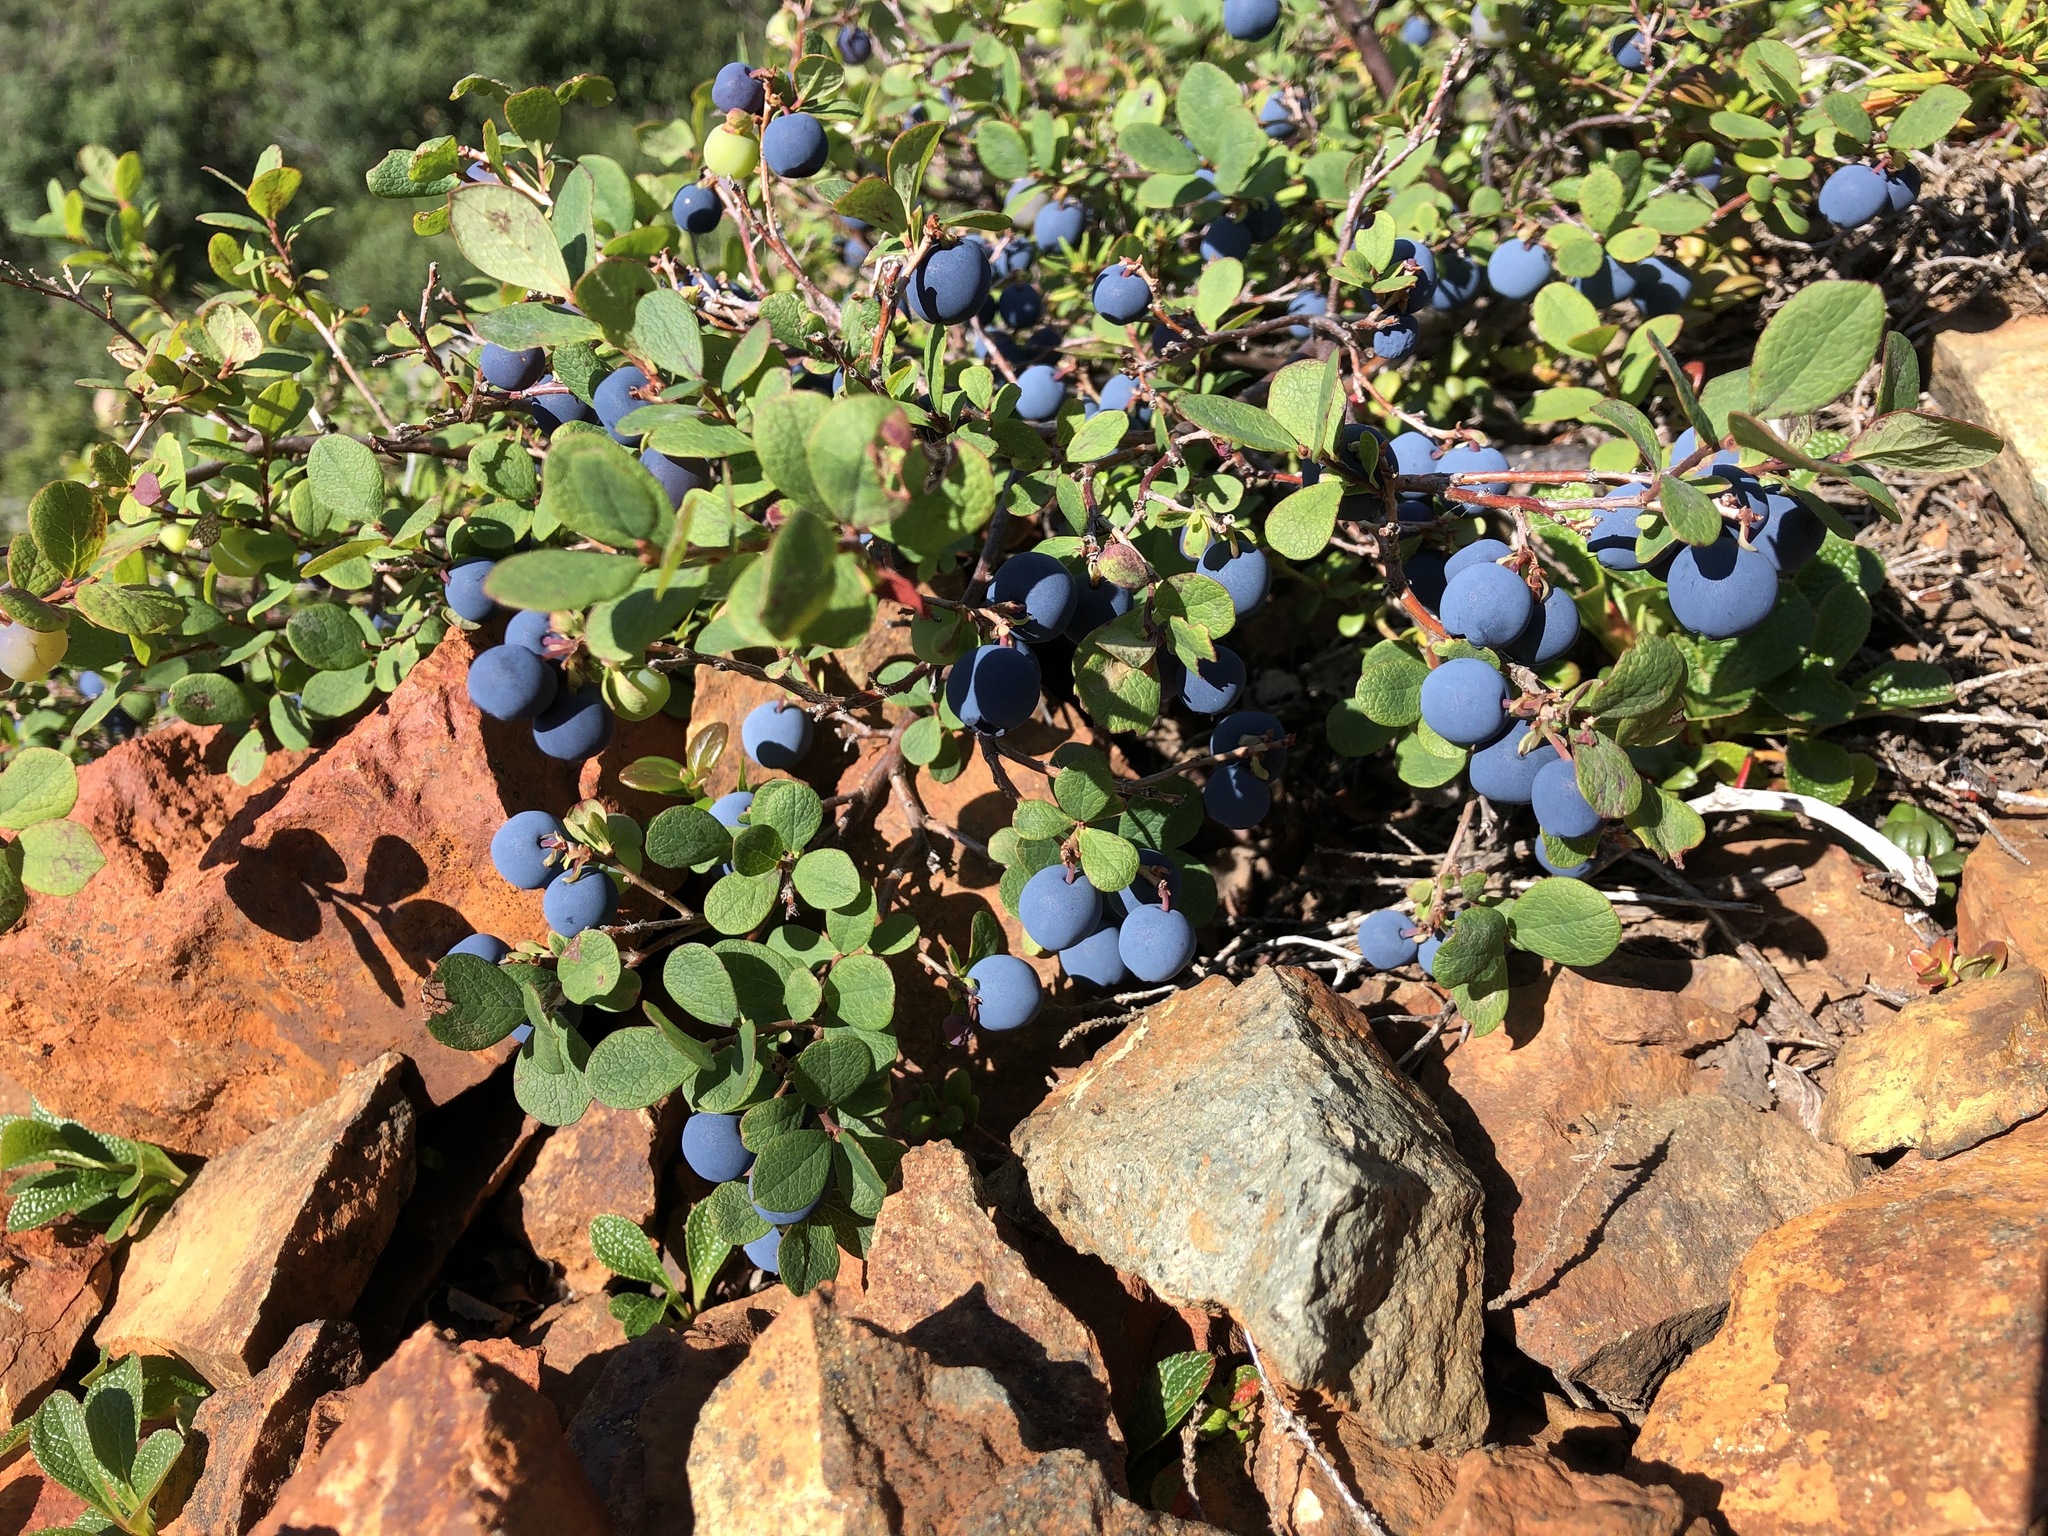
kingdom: Plantae
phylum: Tracheophyta
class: Magnoliopsida
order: Ericales
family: Ericaceae
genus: Vaccinium
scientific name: Vaccinium uliginosum
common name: Bog bilberry
